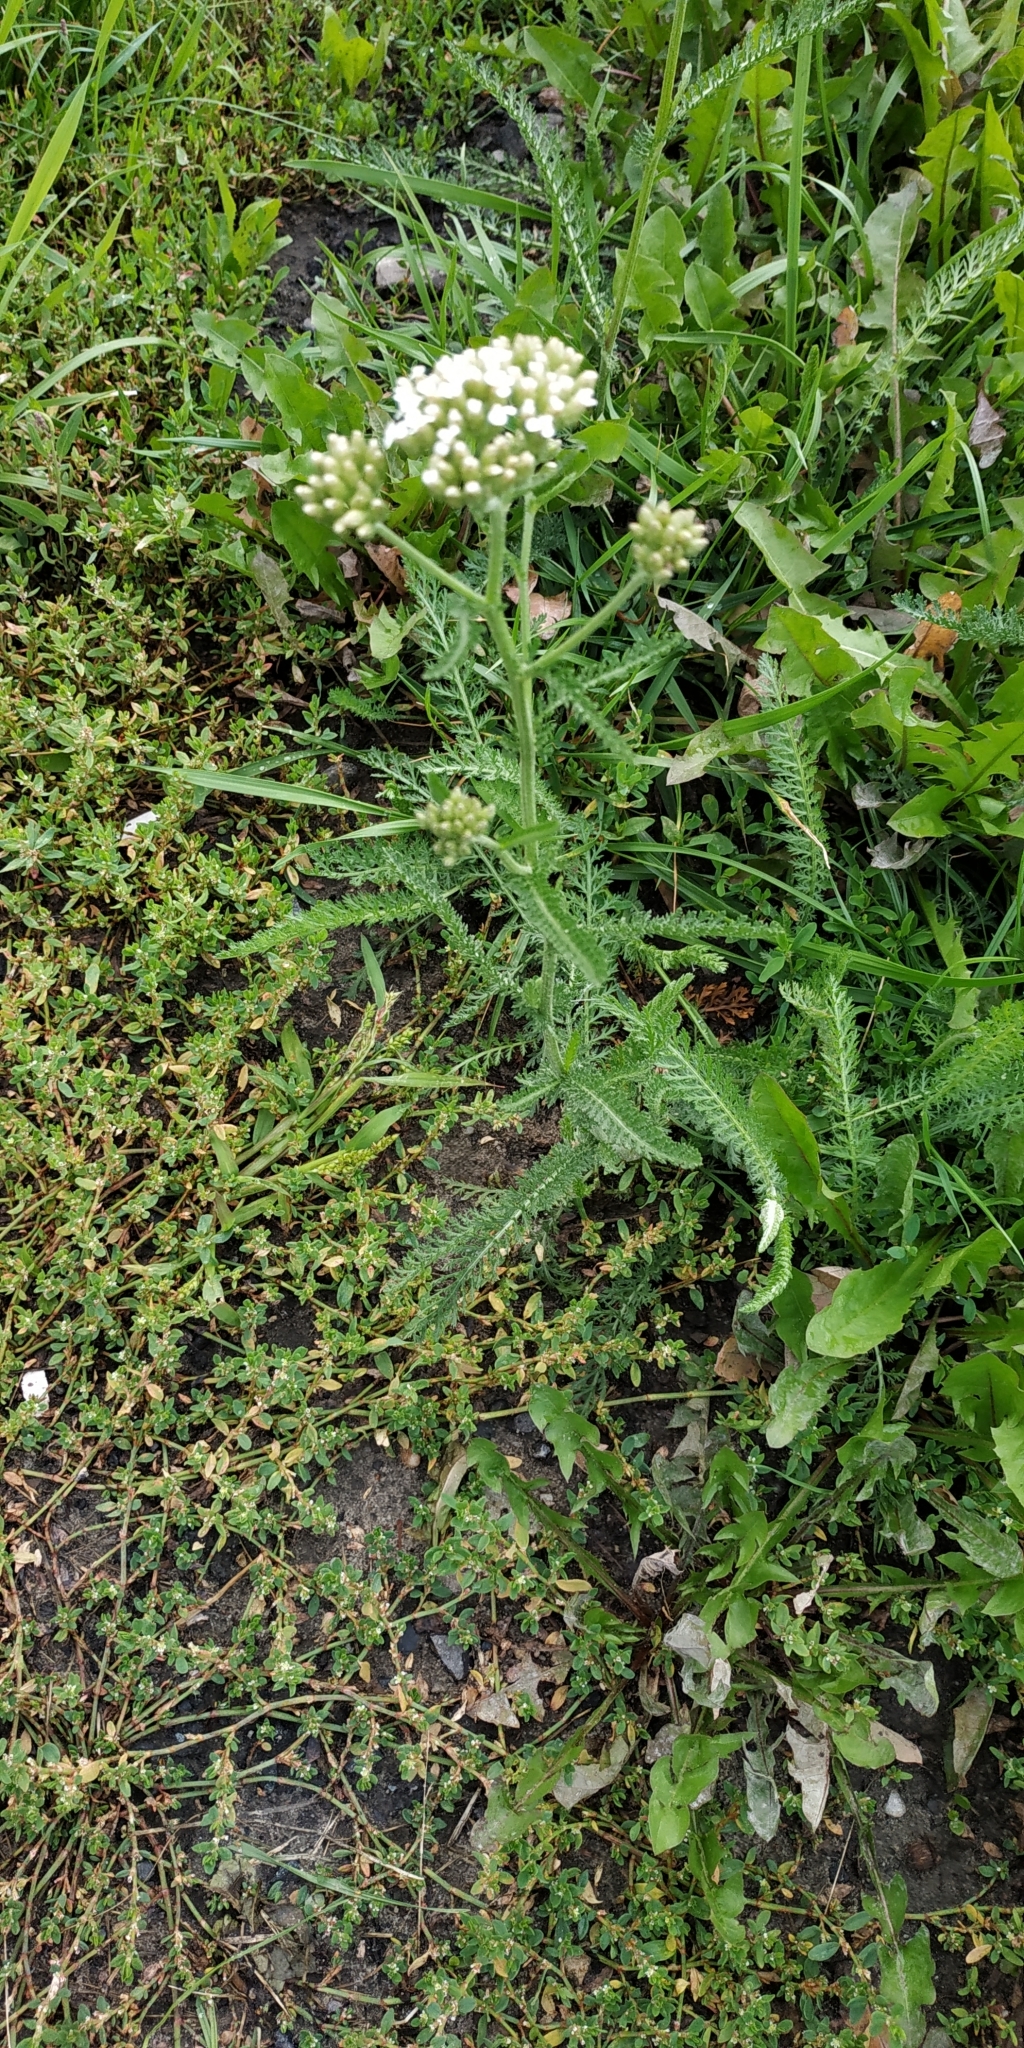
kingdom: Plantae
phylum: Tracheophyta
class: Magnoliopsida
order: Asterales
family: Asteraceae
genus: Achillea
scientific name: Achillea millefolium
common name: Yarrow
